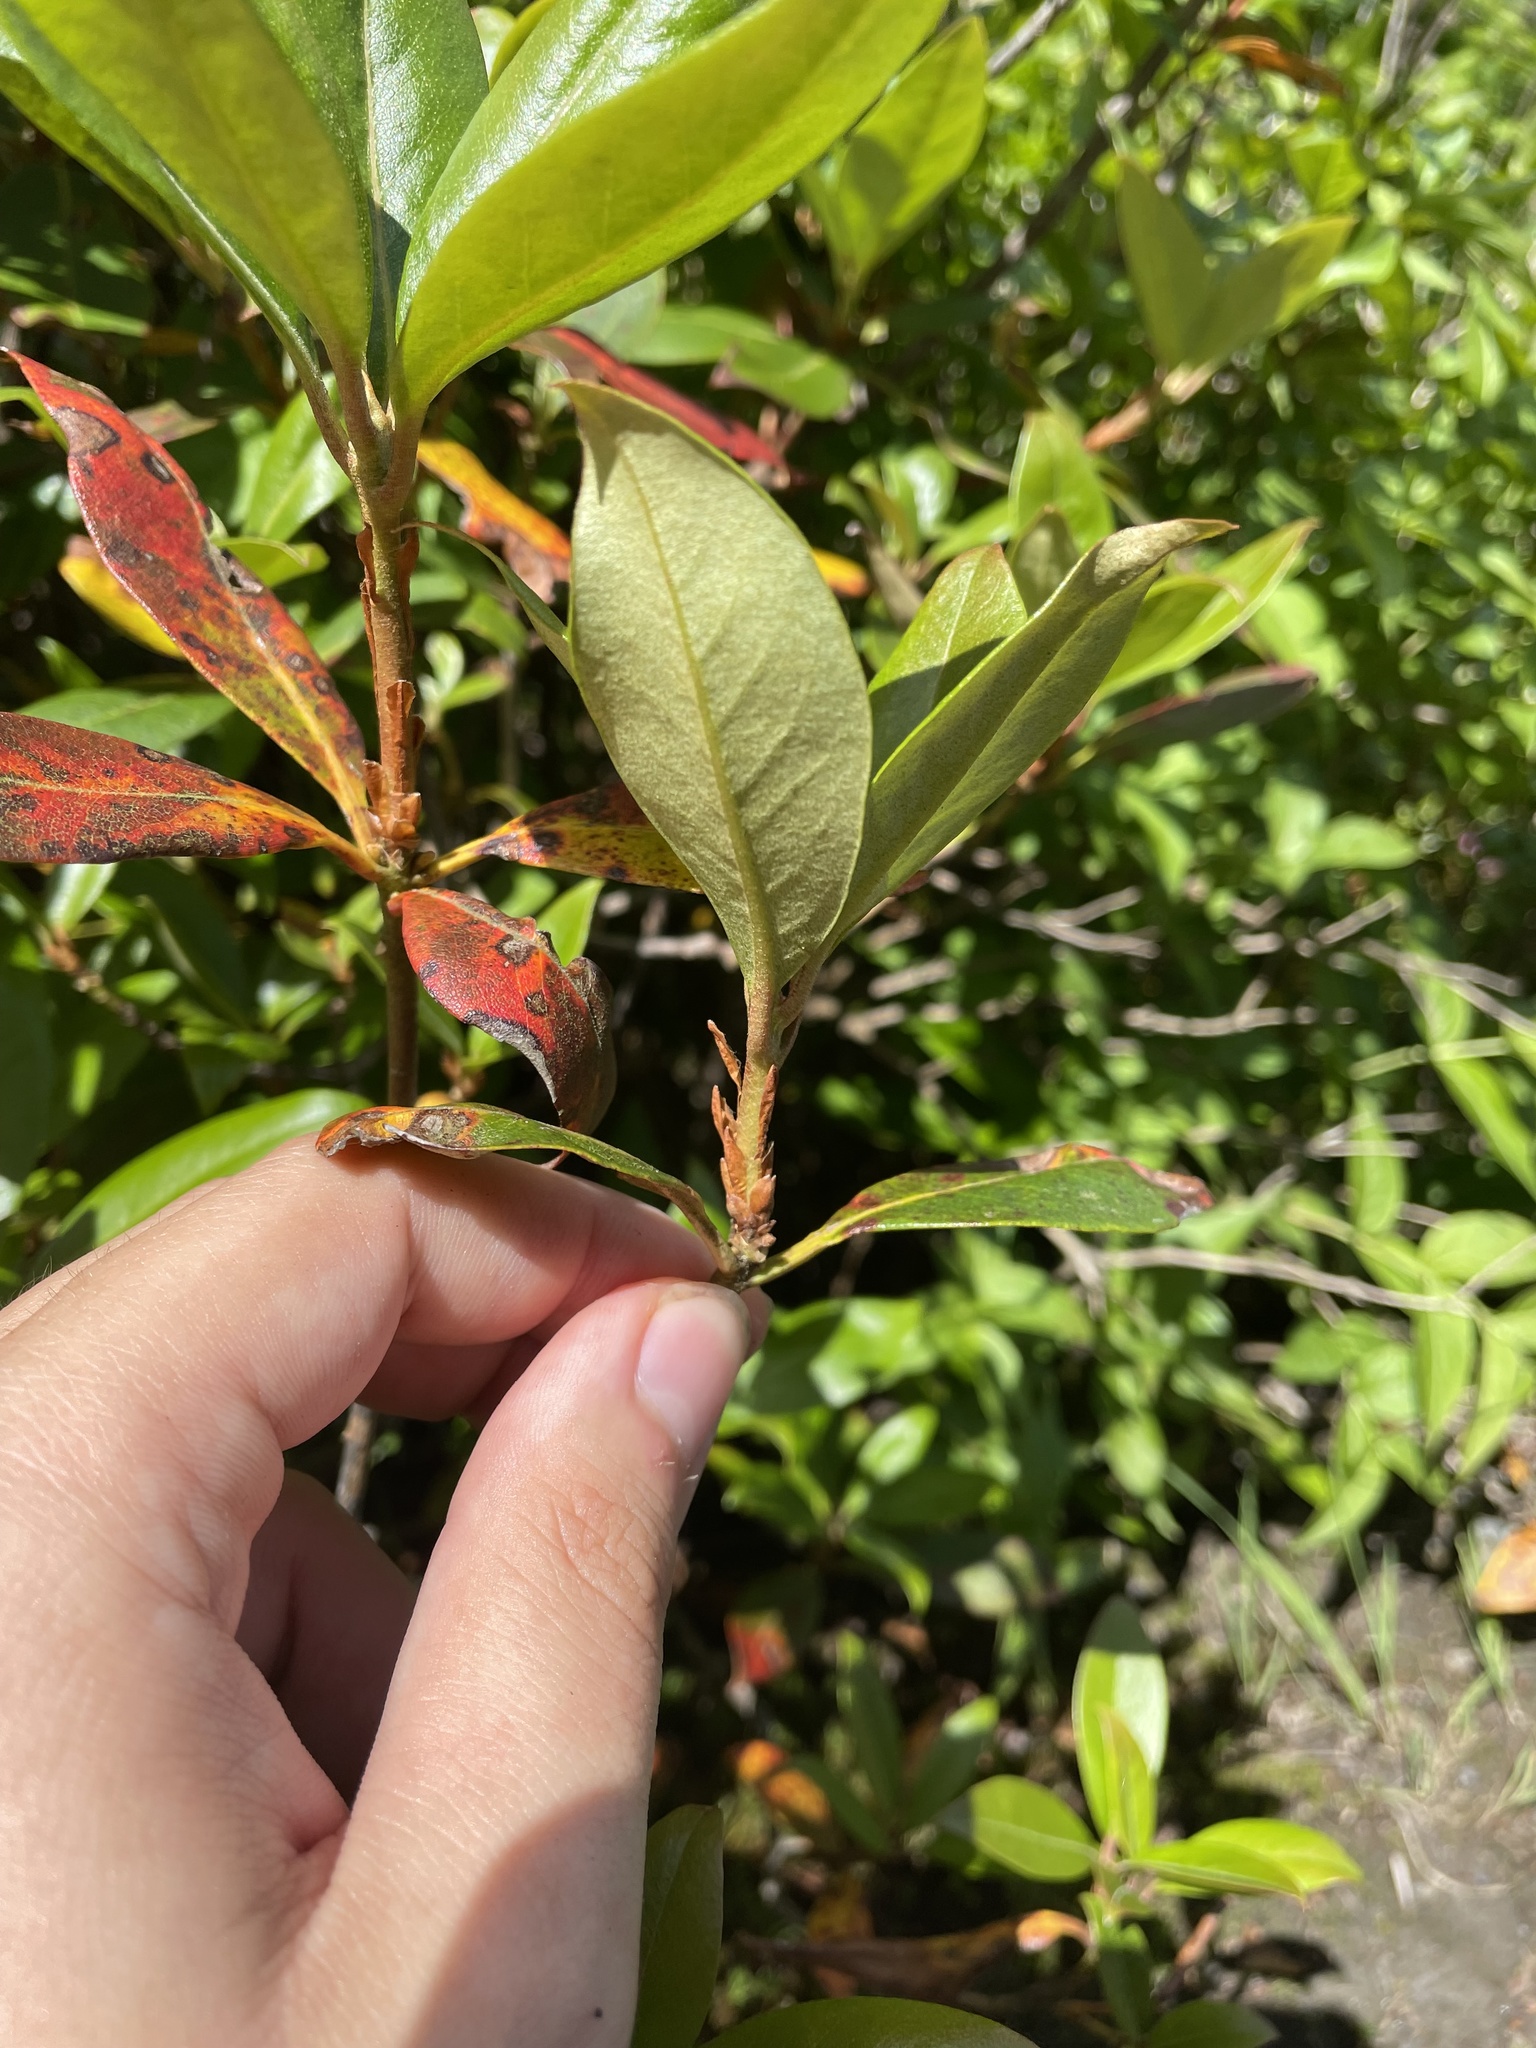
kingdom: Plantae
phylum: Tracheophyta
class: Magnoliopsida
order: Ericales
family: Ericaceae
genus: Rhododendron
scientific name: Rhododendron smokianum
